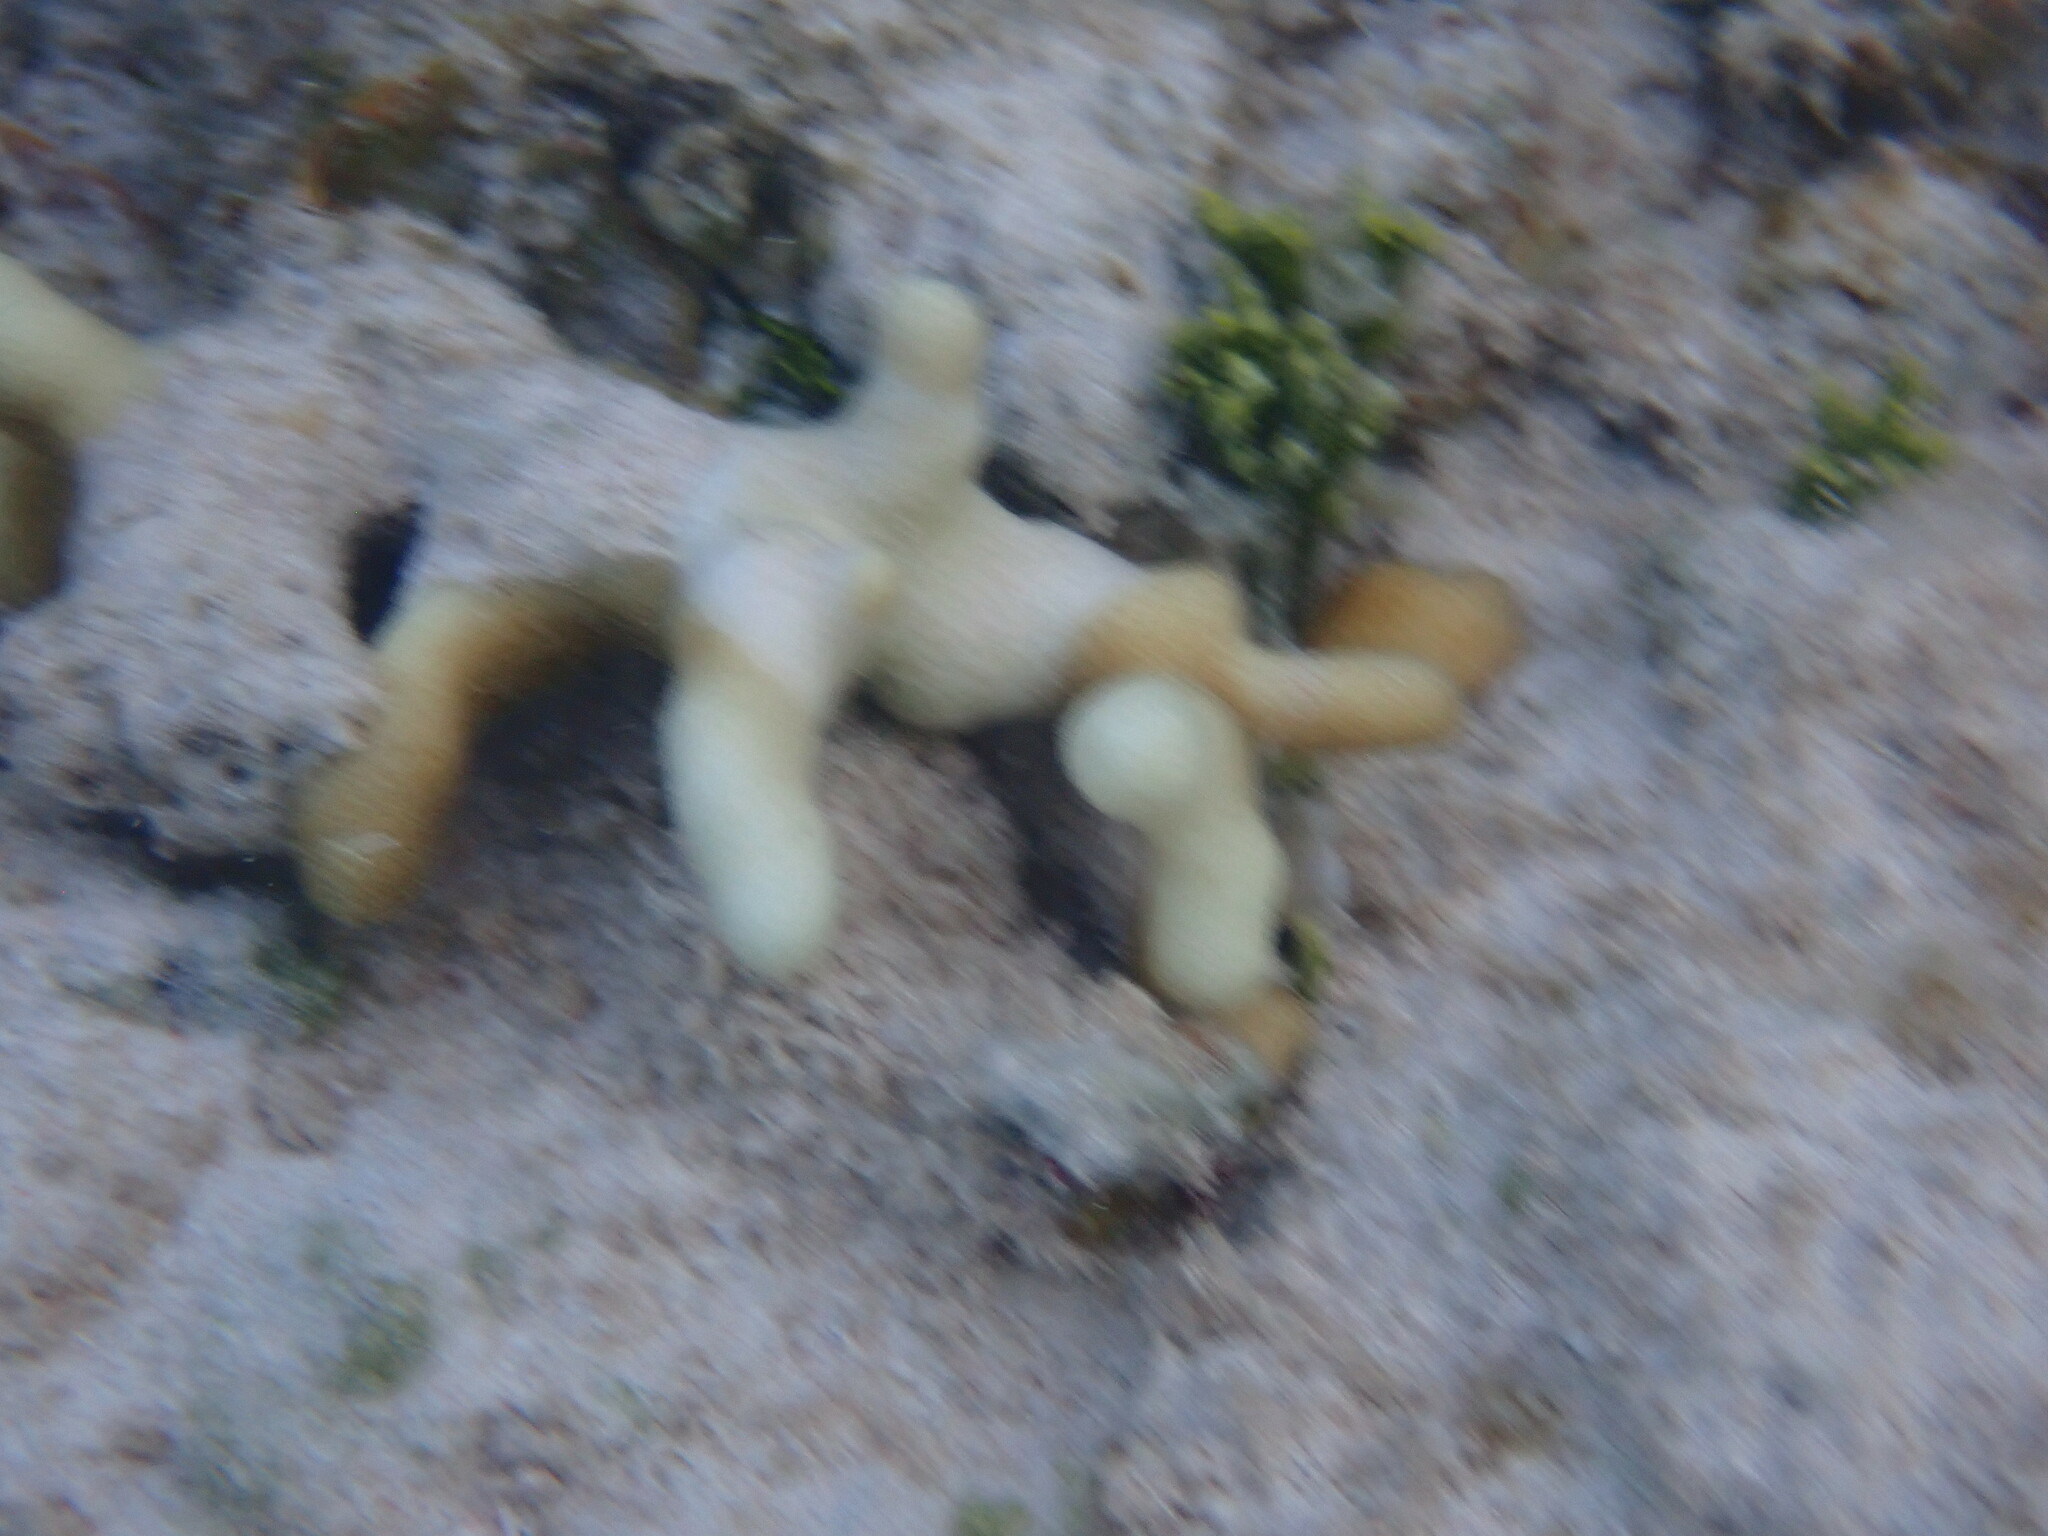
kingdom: Animalia
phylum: Cnidaria
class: Anthozoa
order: Scleractinia
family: Poritidae
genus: Porites
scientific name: Porites porites
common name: Finger coral
